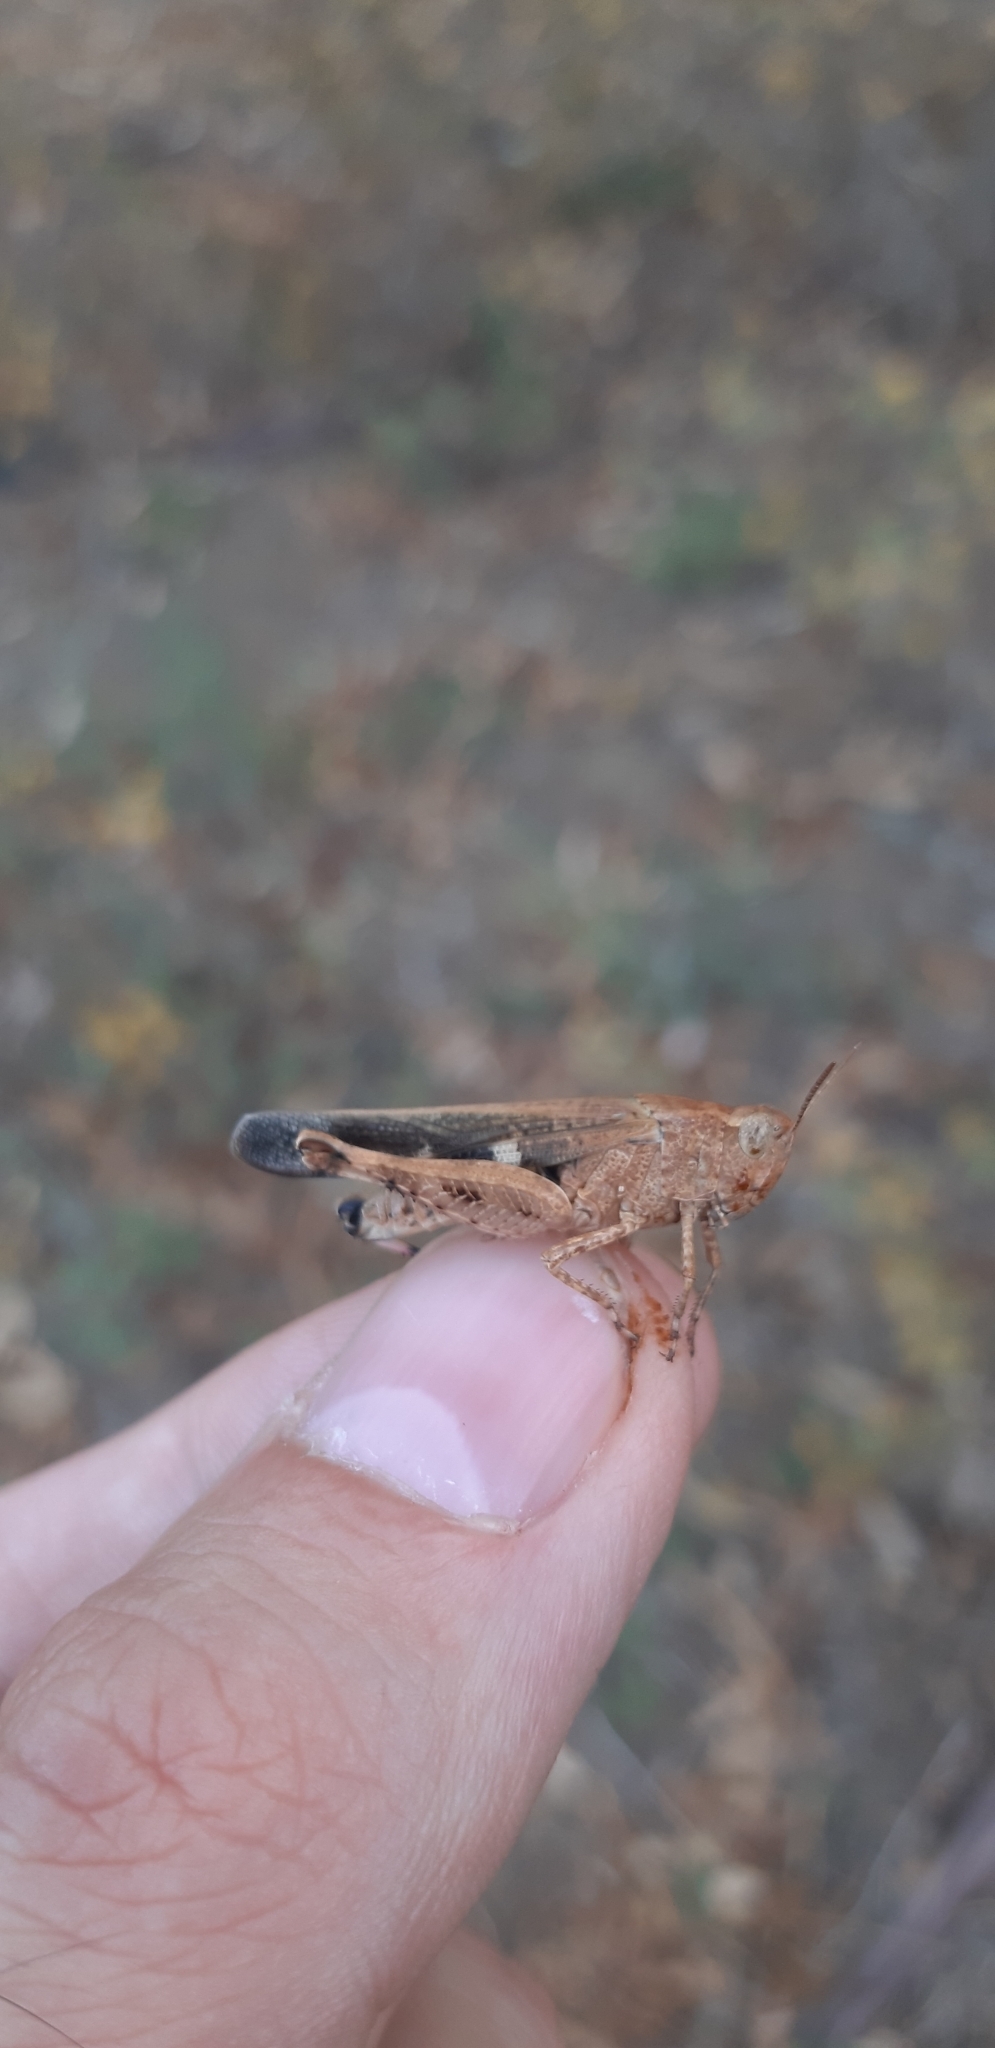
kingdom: Animalia
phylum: Arthropoda
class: Insecta
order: Orthoptera
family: Acrididae
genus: Aiolopus
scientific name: Aiolopus strepens
